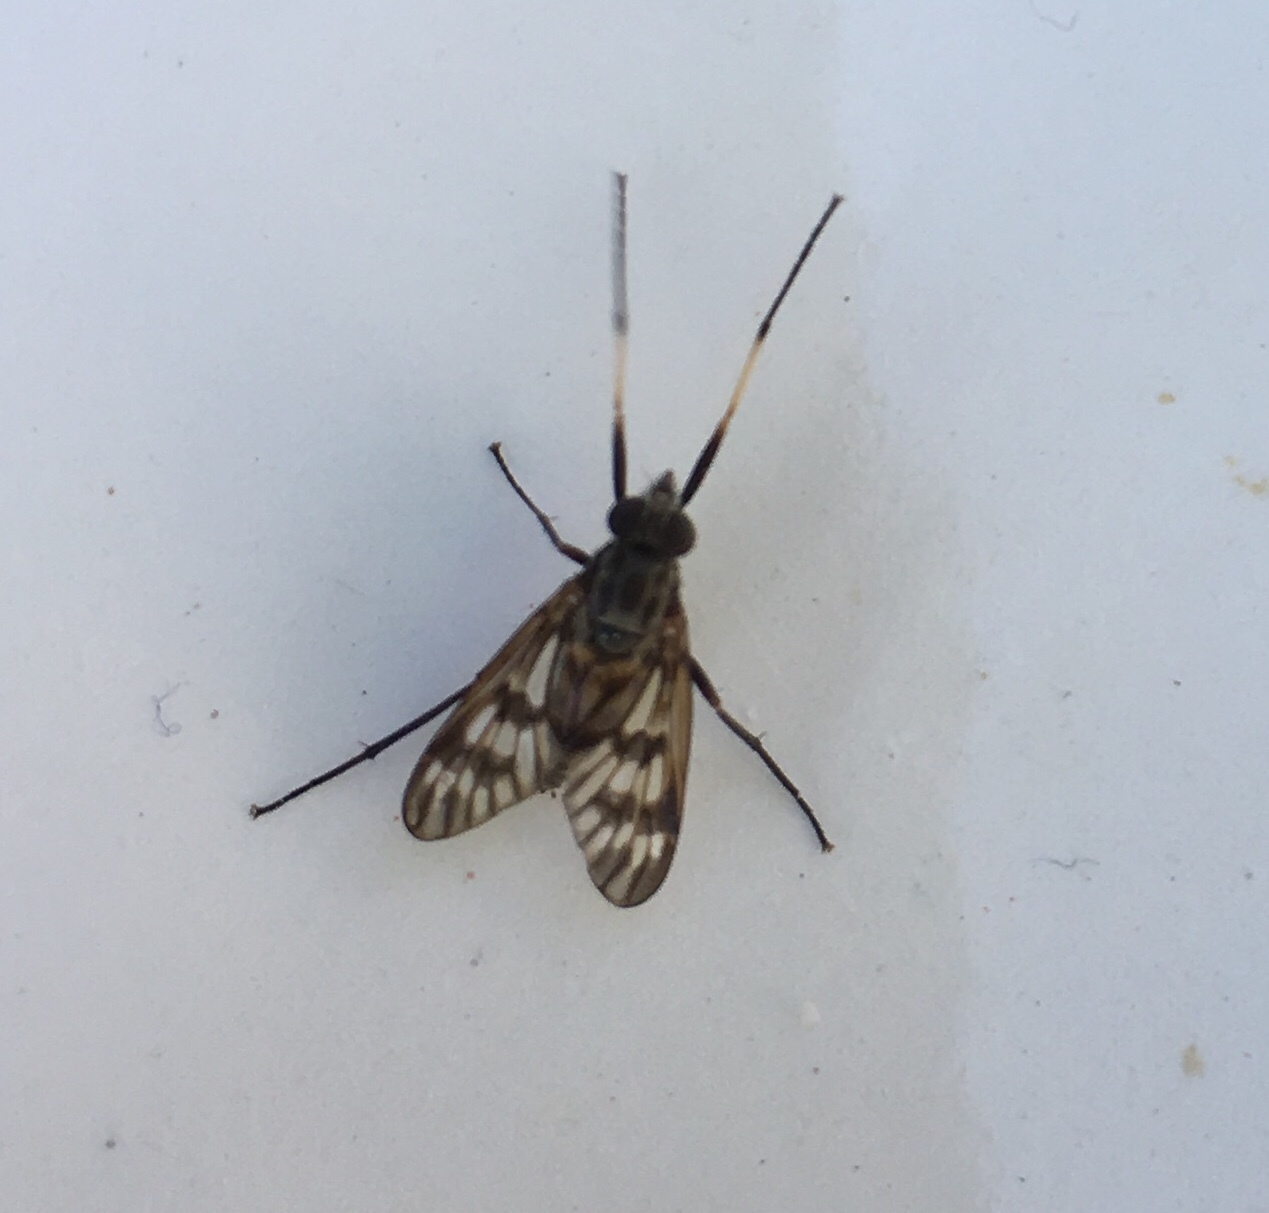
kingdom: Animalia
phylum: Arthropoda
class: Insecta
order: Diptera
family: Rhagionidae
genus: Rhagio
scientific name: Rhagio mystaceus
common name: Common snipe fly
